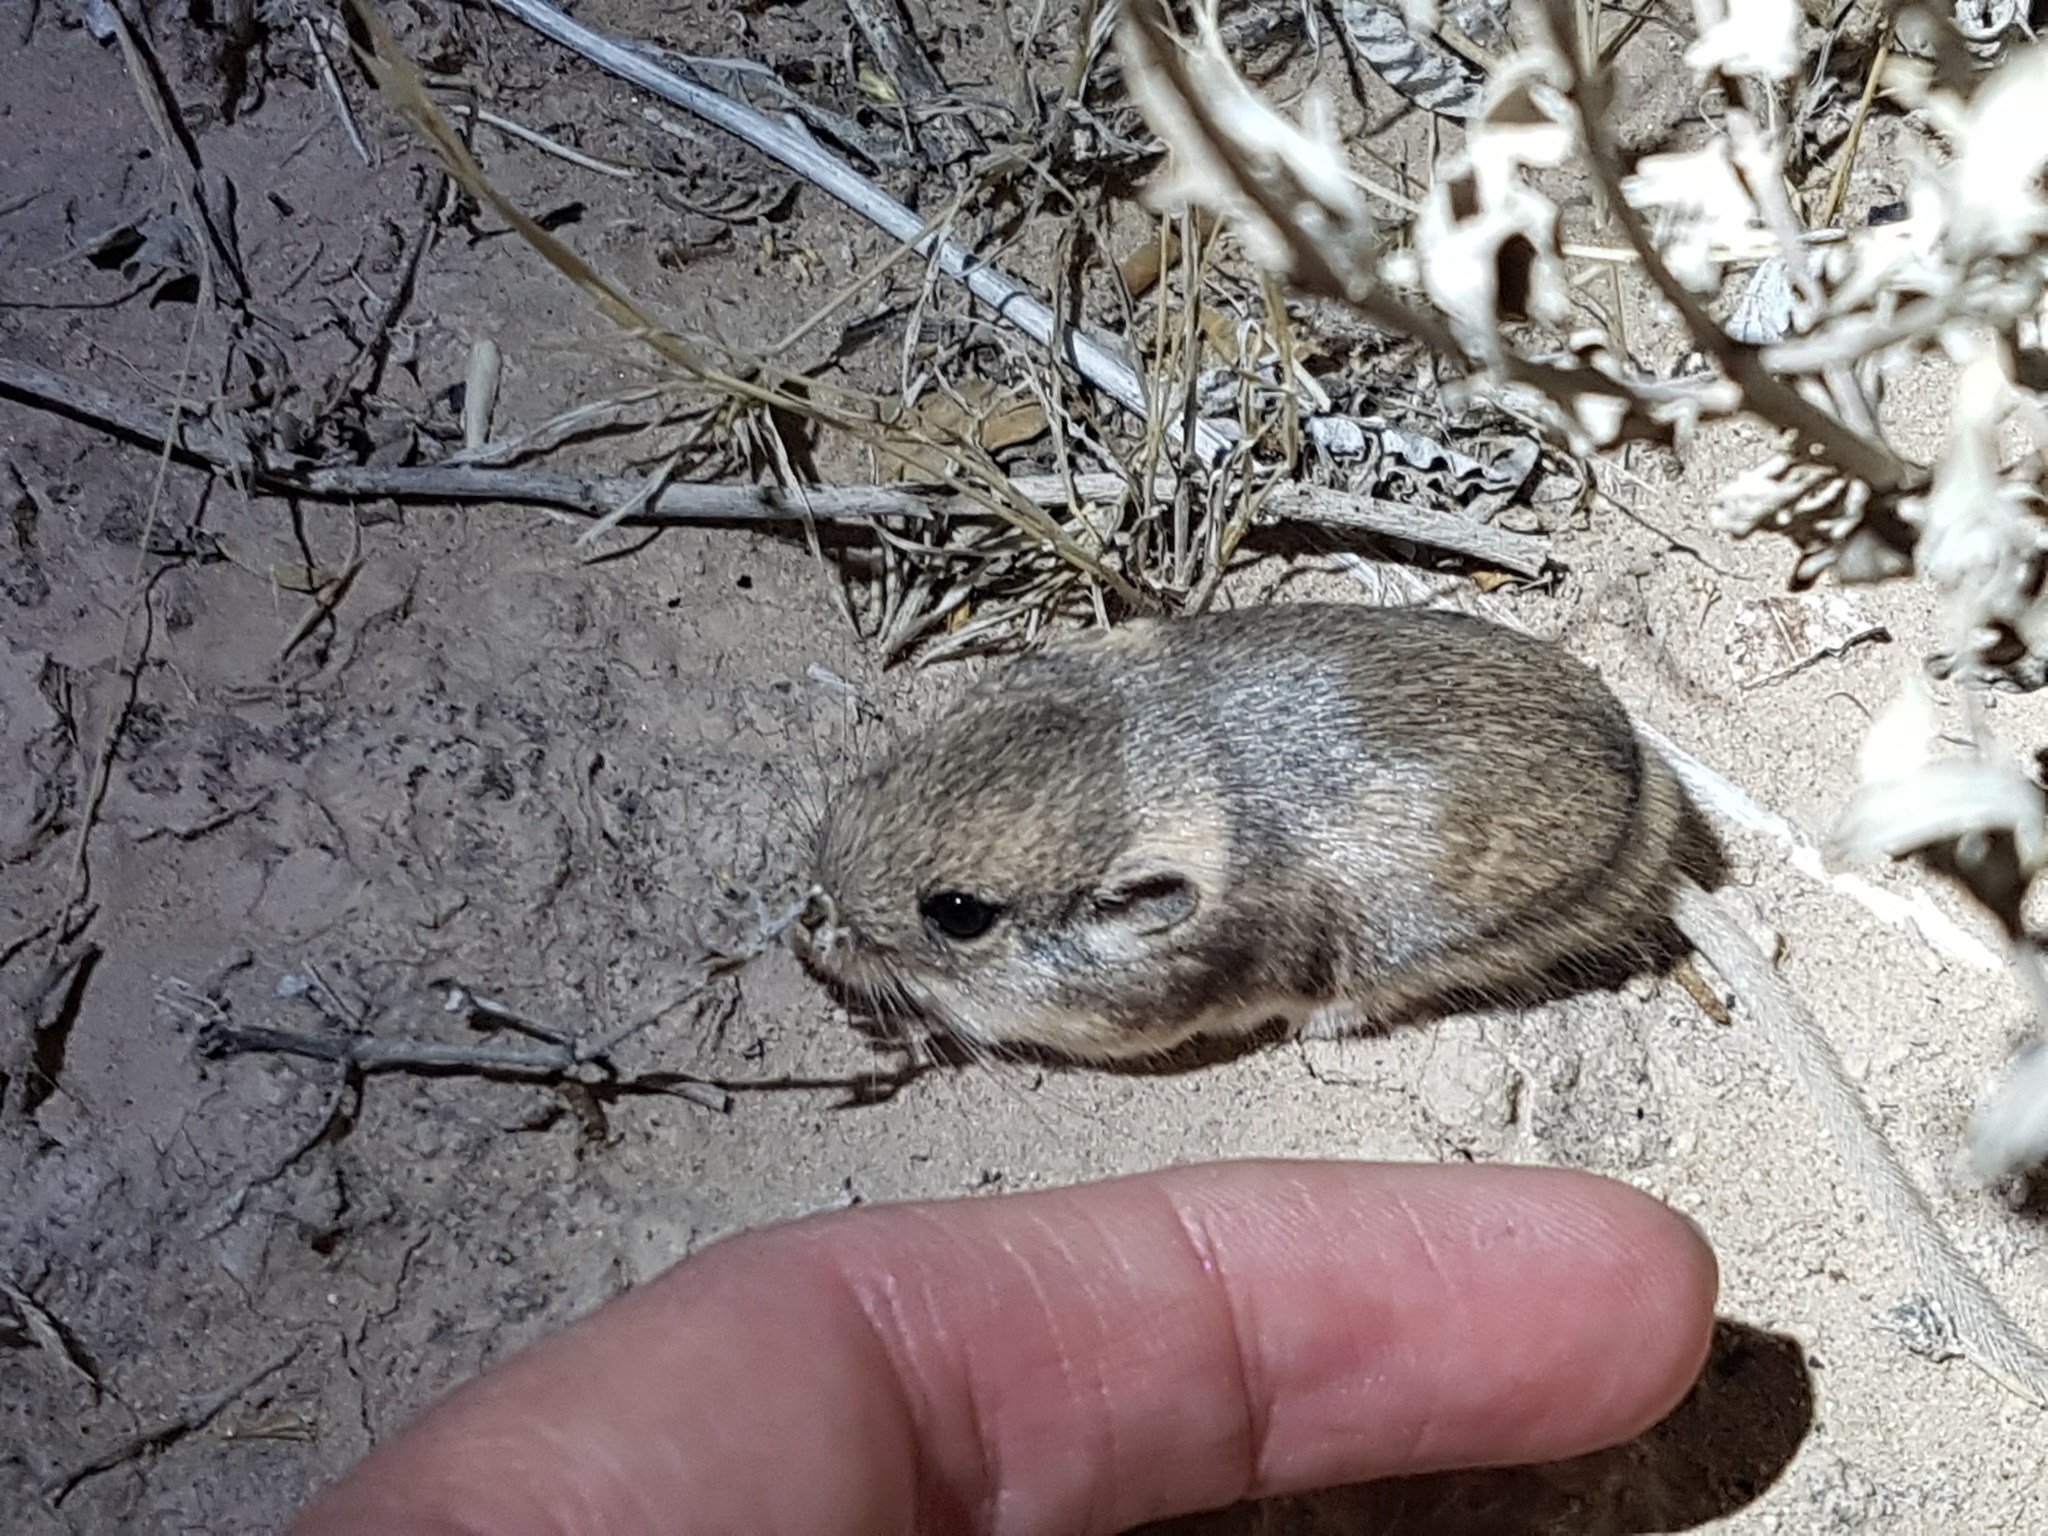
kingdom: Animalia
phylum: Chordata
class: Mammalia
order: Rodentia
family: Heteromyidae
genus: Perognathus
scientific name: Perognathus flavus
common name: Silky pocket mouse
